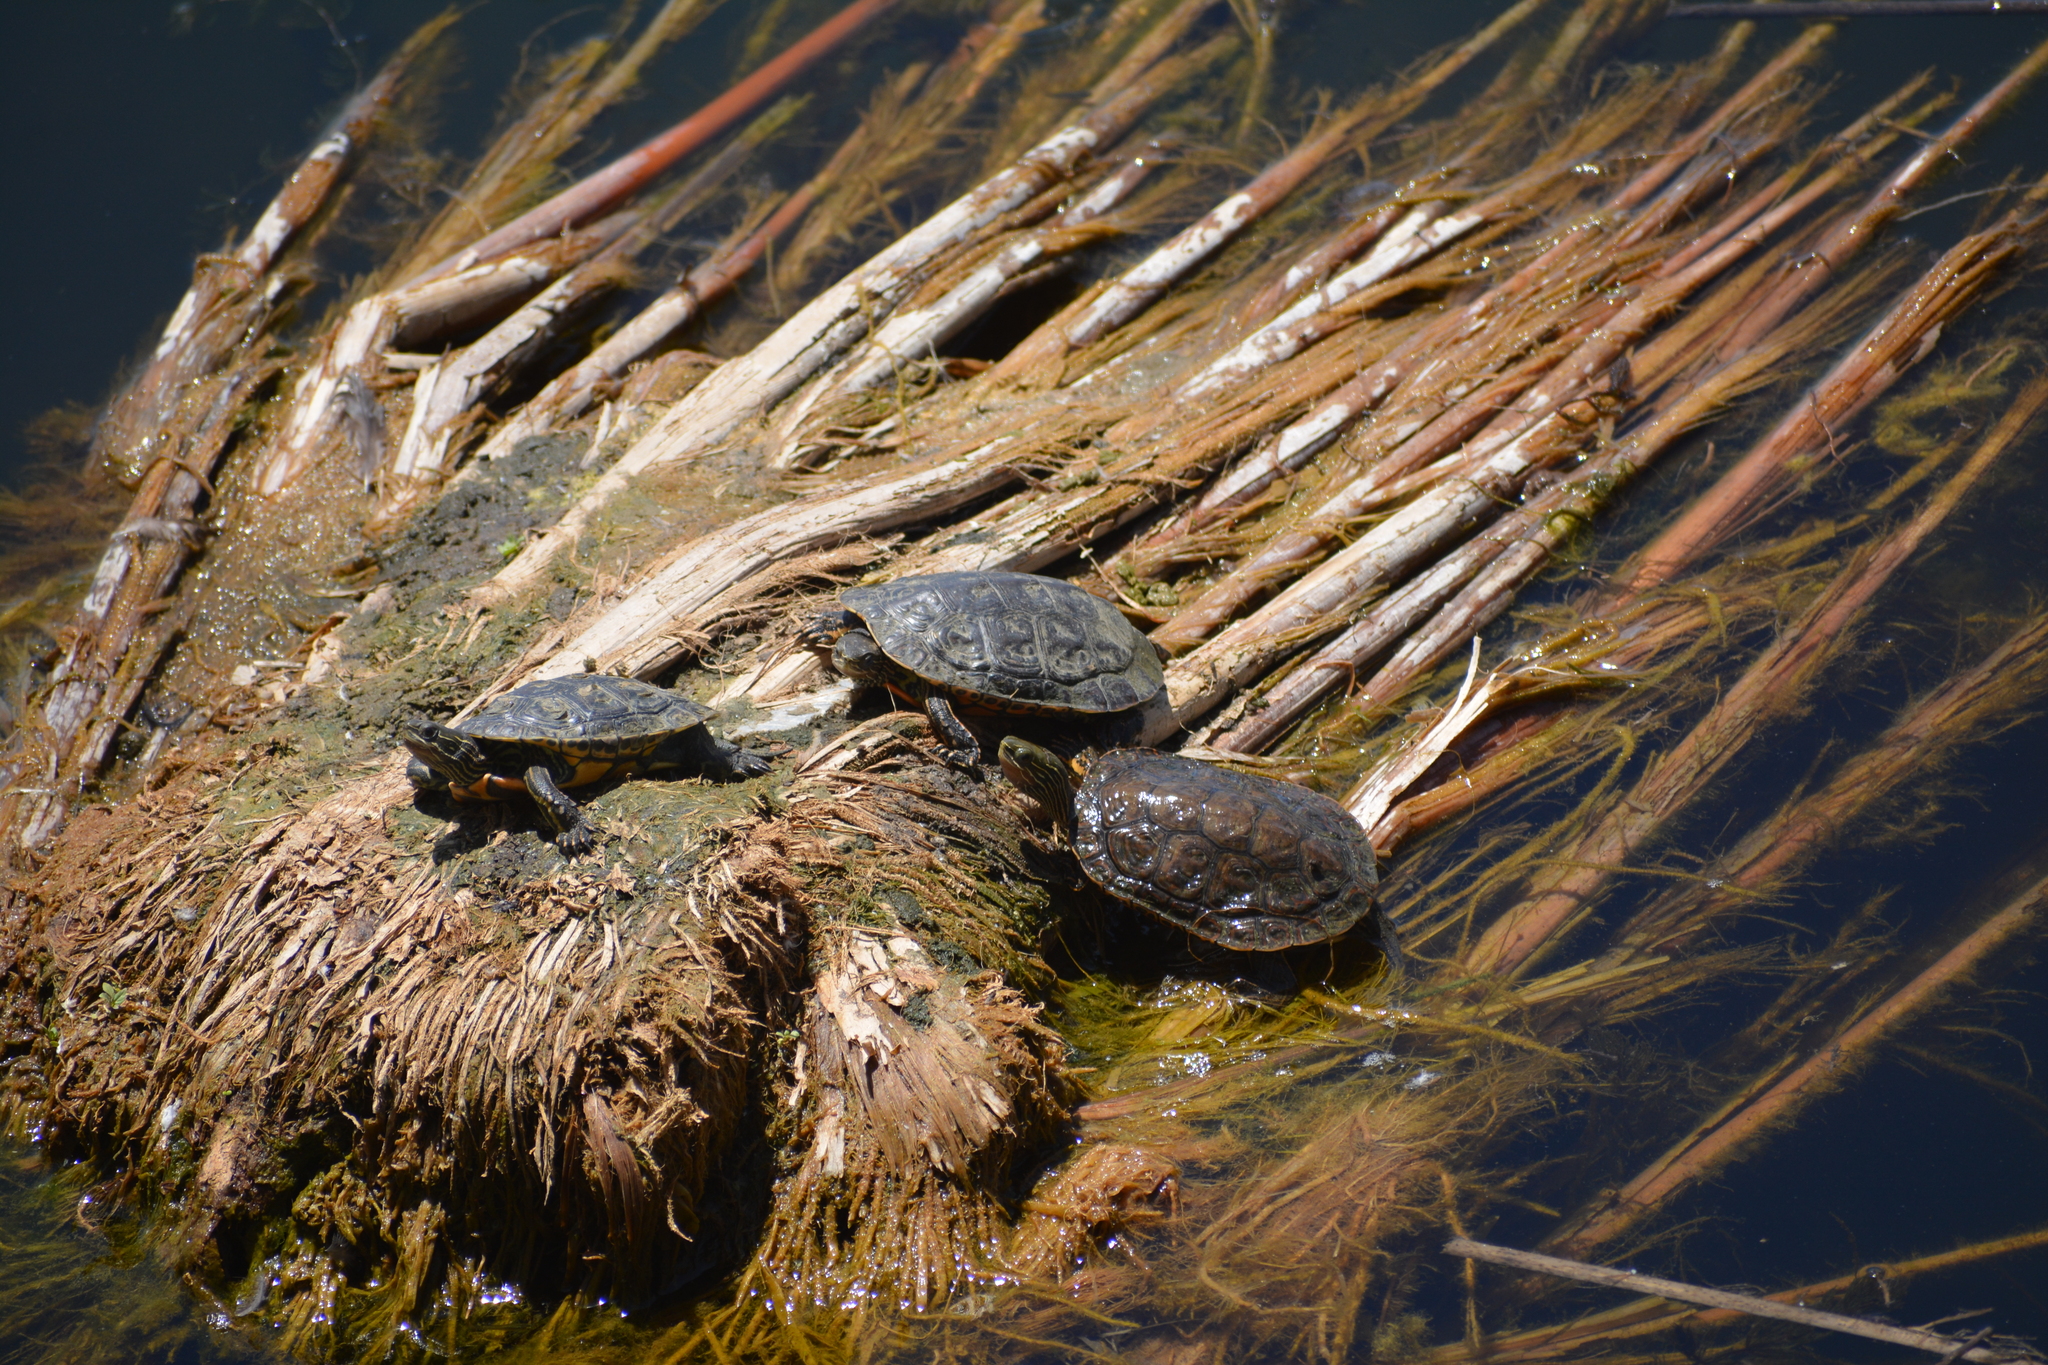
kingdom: Animalia
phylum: Chordata
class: Testudines
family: Geoemydidae
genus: Mauremys
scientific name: Mauremys caspica
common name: Caspian turtle
